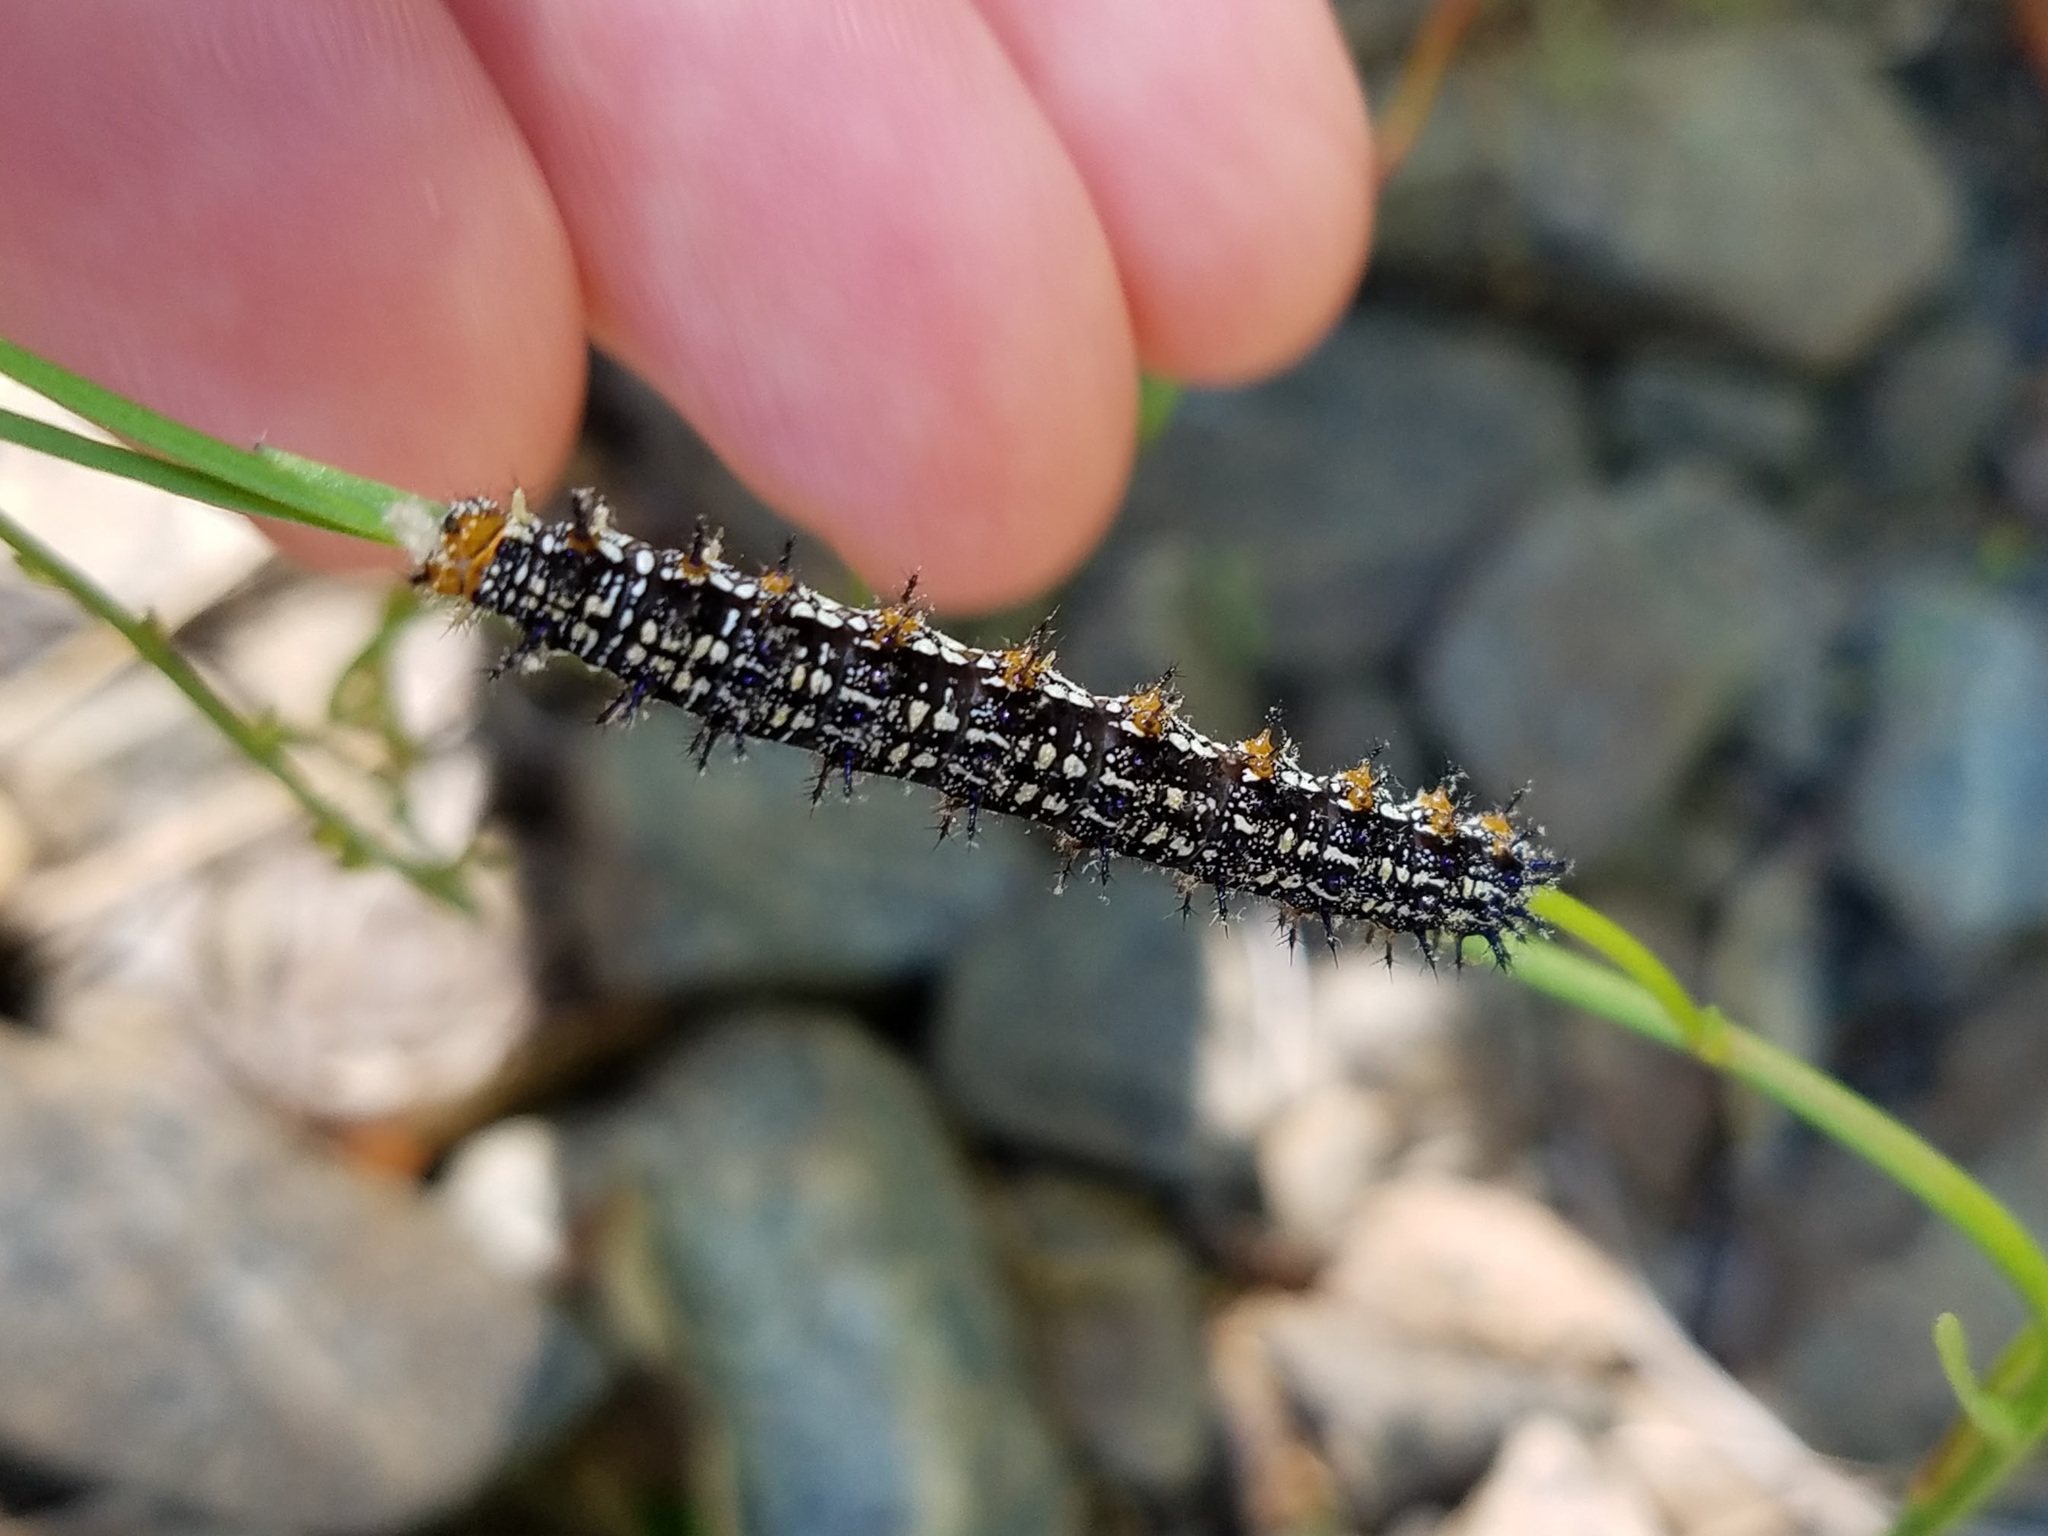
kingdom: Animalia
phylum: Arthropoda
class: Insecta
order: Lepidoptera
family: Nymphalidae
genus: Junonia
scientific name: Junonia coenia
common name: Common buckeye
